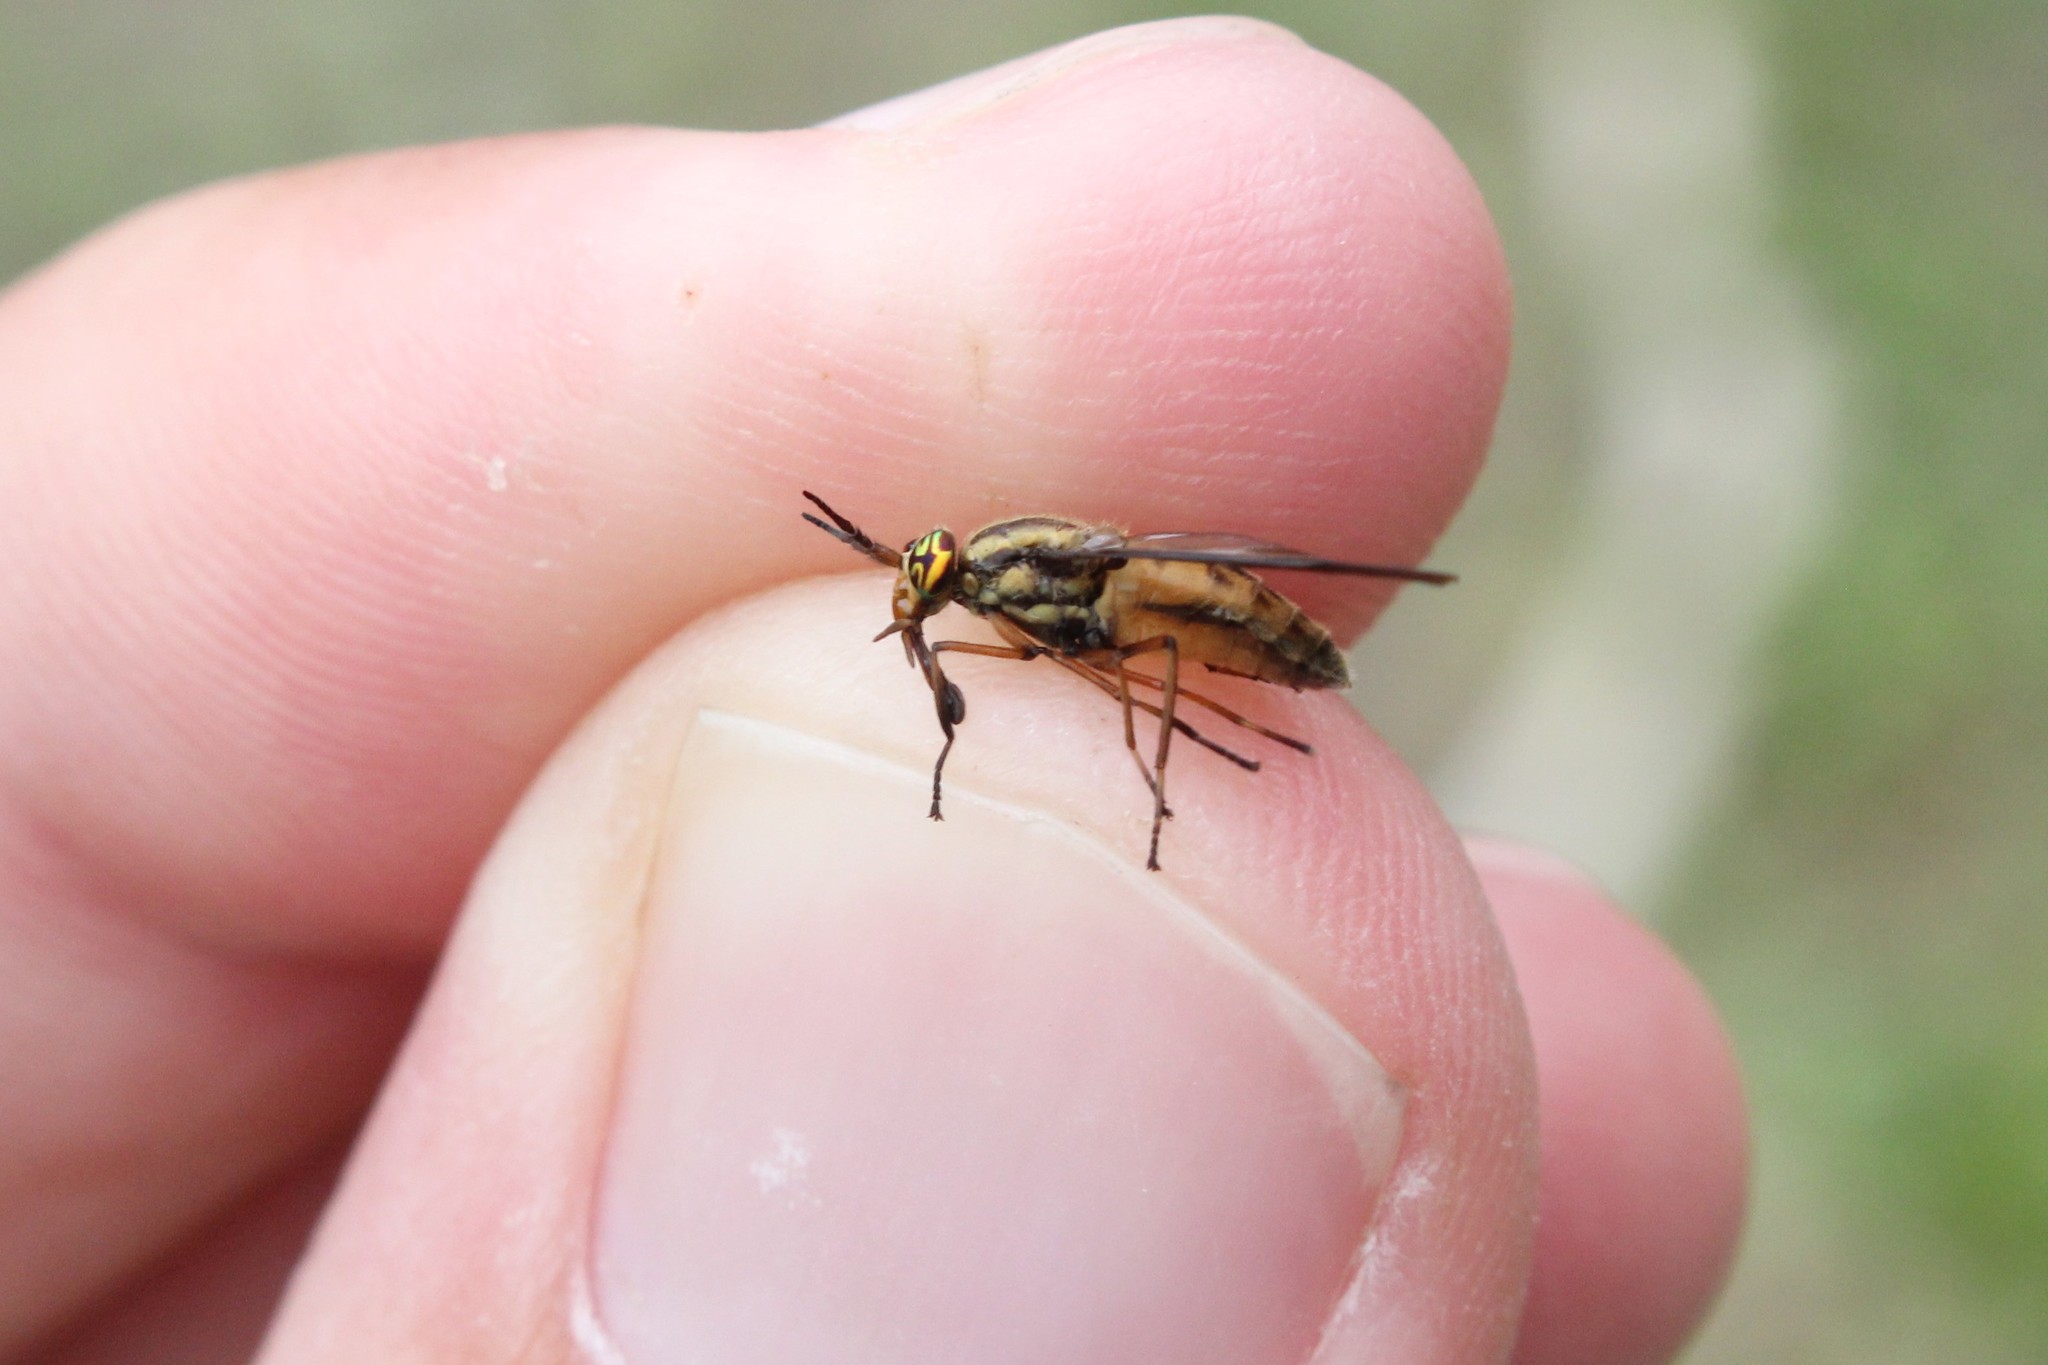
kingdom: Animalia
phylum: Arthropoda
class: Insecta
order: Diptera
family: Tabanidae
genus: Chrysops
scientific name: Chrysops moechus
